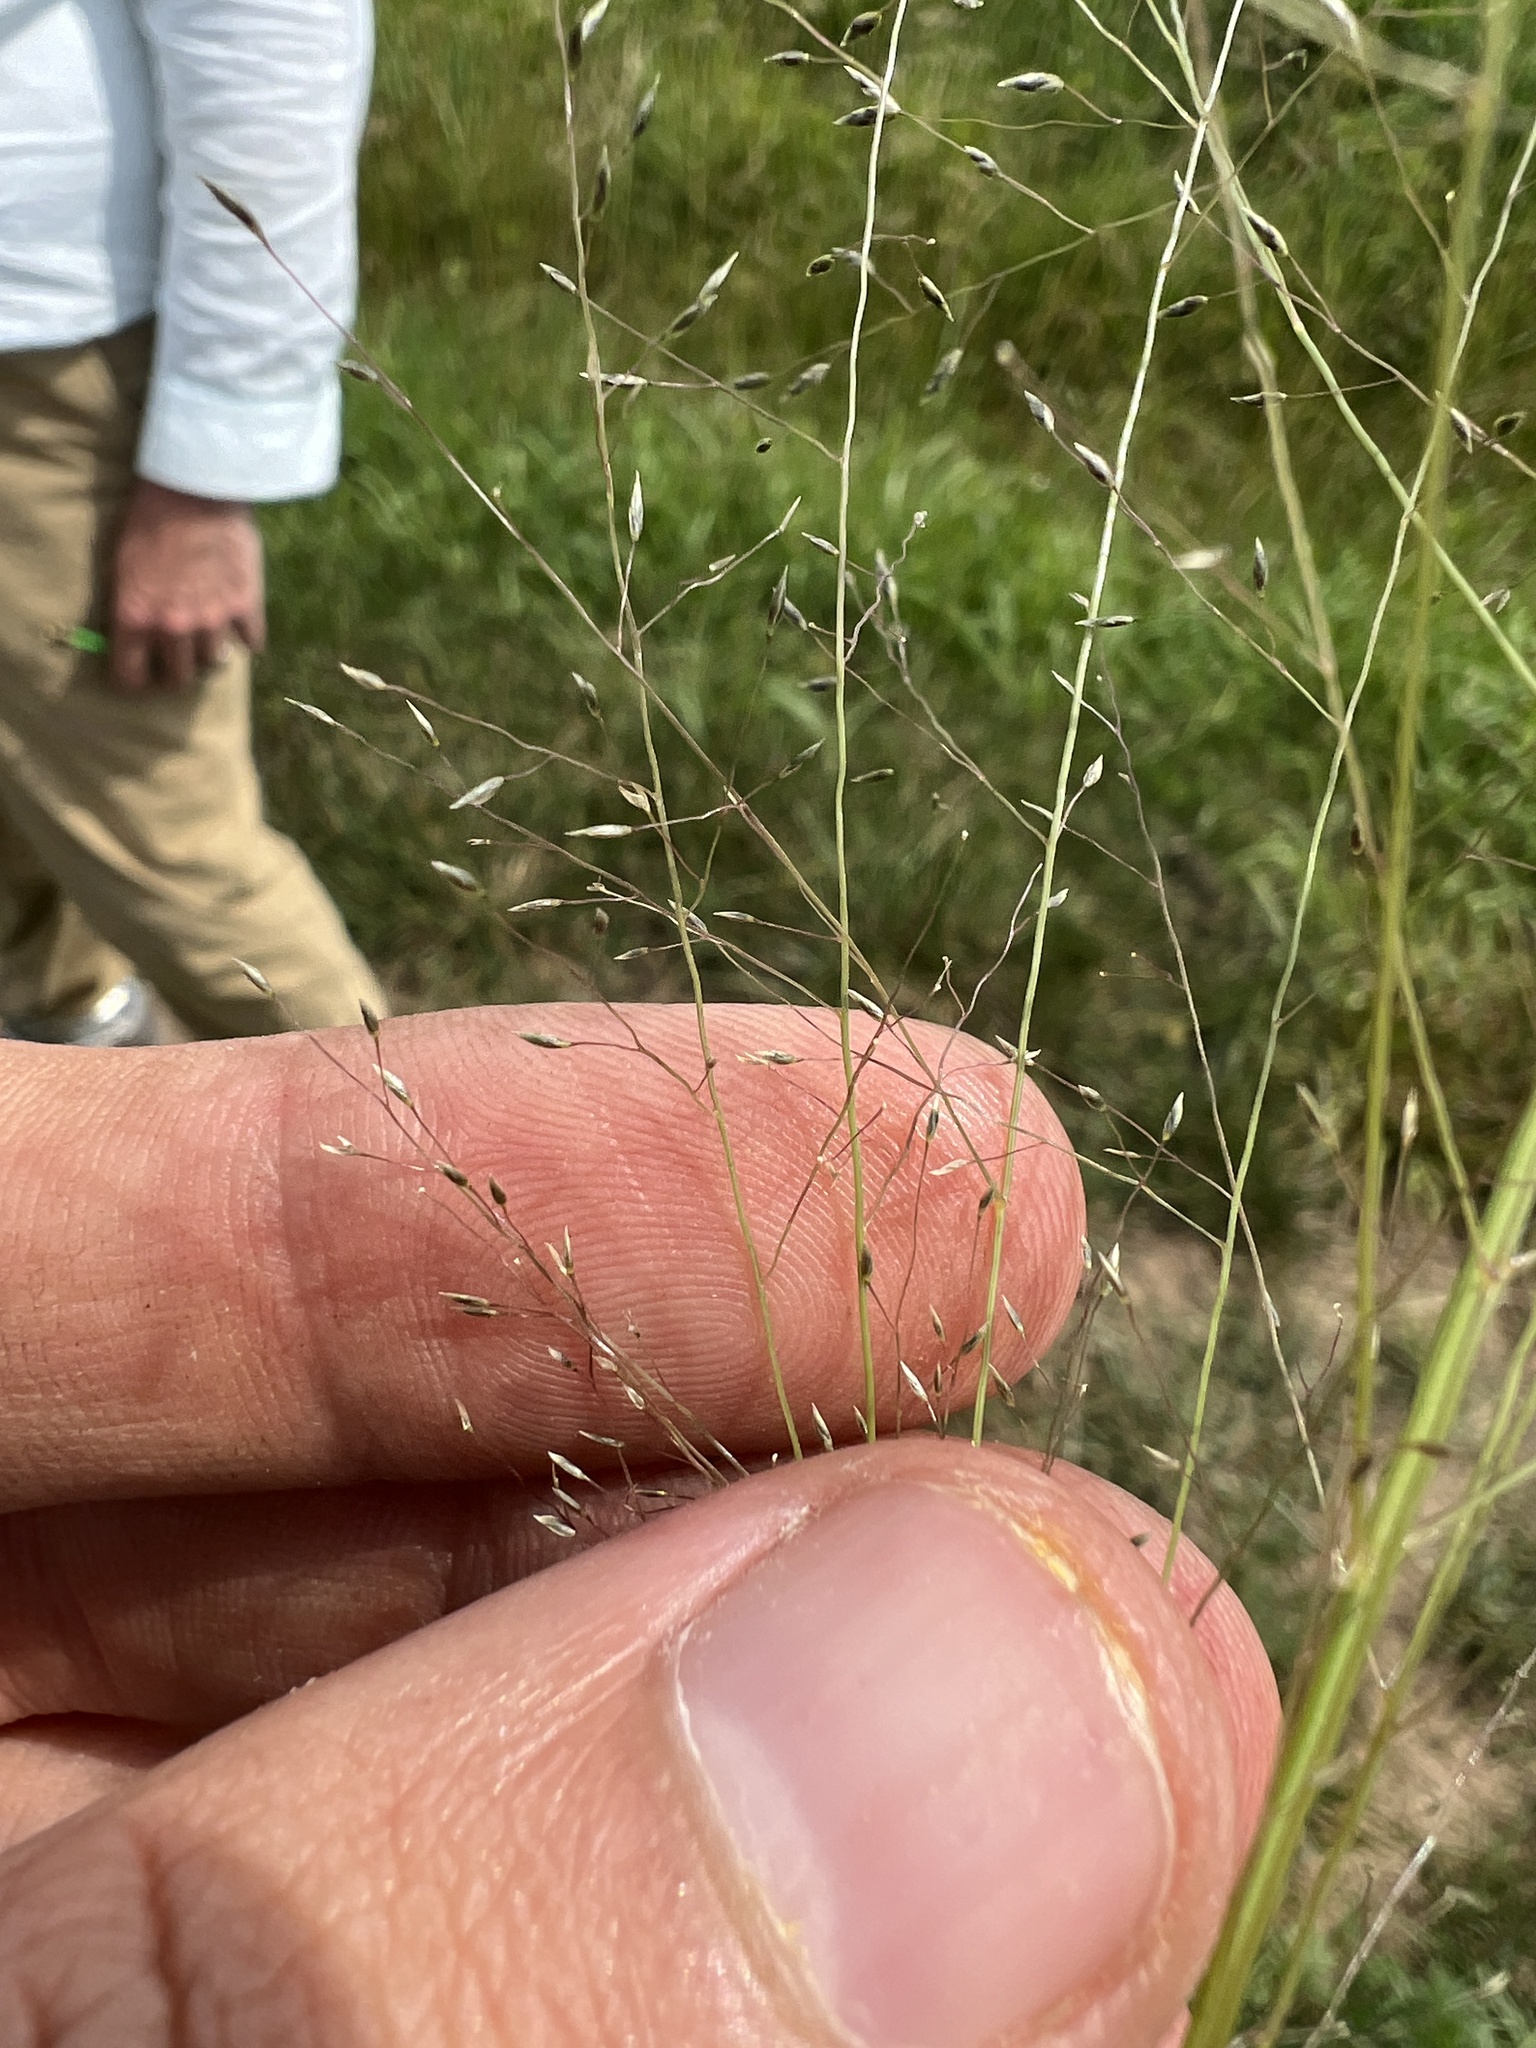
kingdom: Plantae
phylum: Tracheophyta
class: Liliopsida
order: Poales
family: Poaceae
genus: Eragrostis
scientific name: Eragrostis intermedia
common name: Plains love grass
